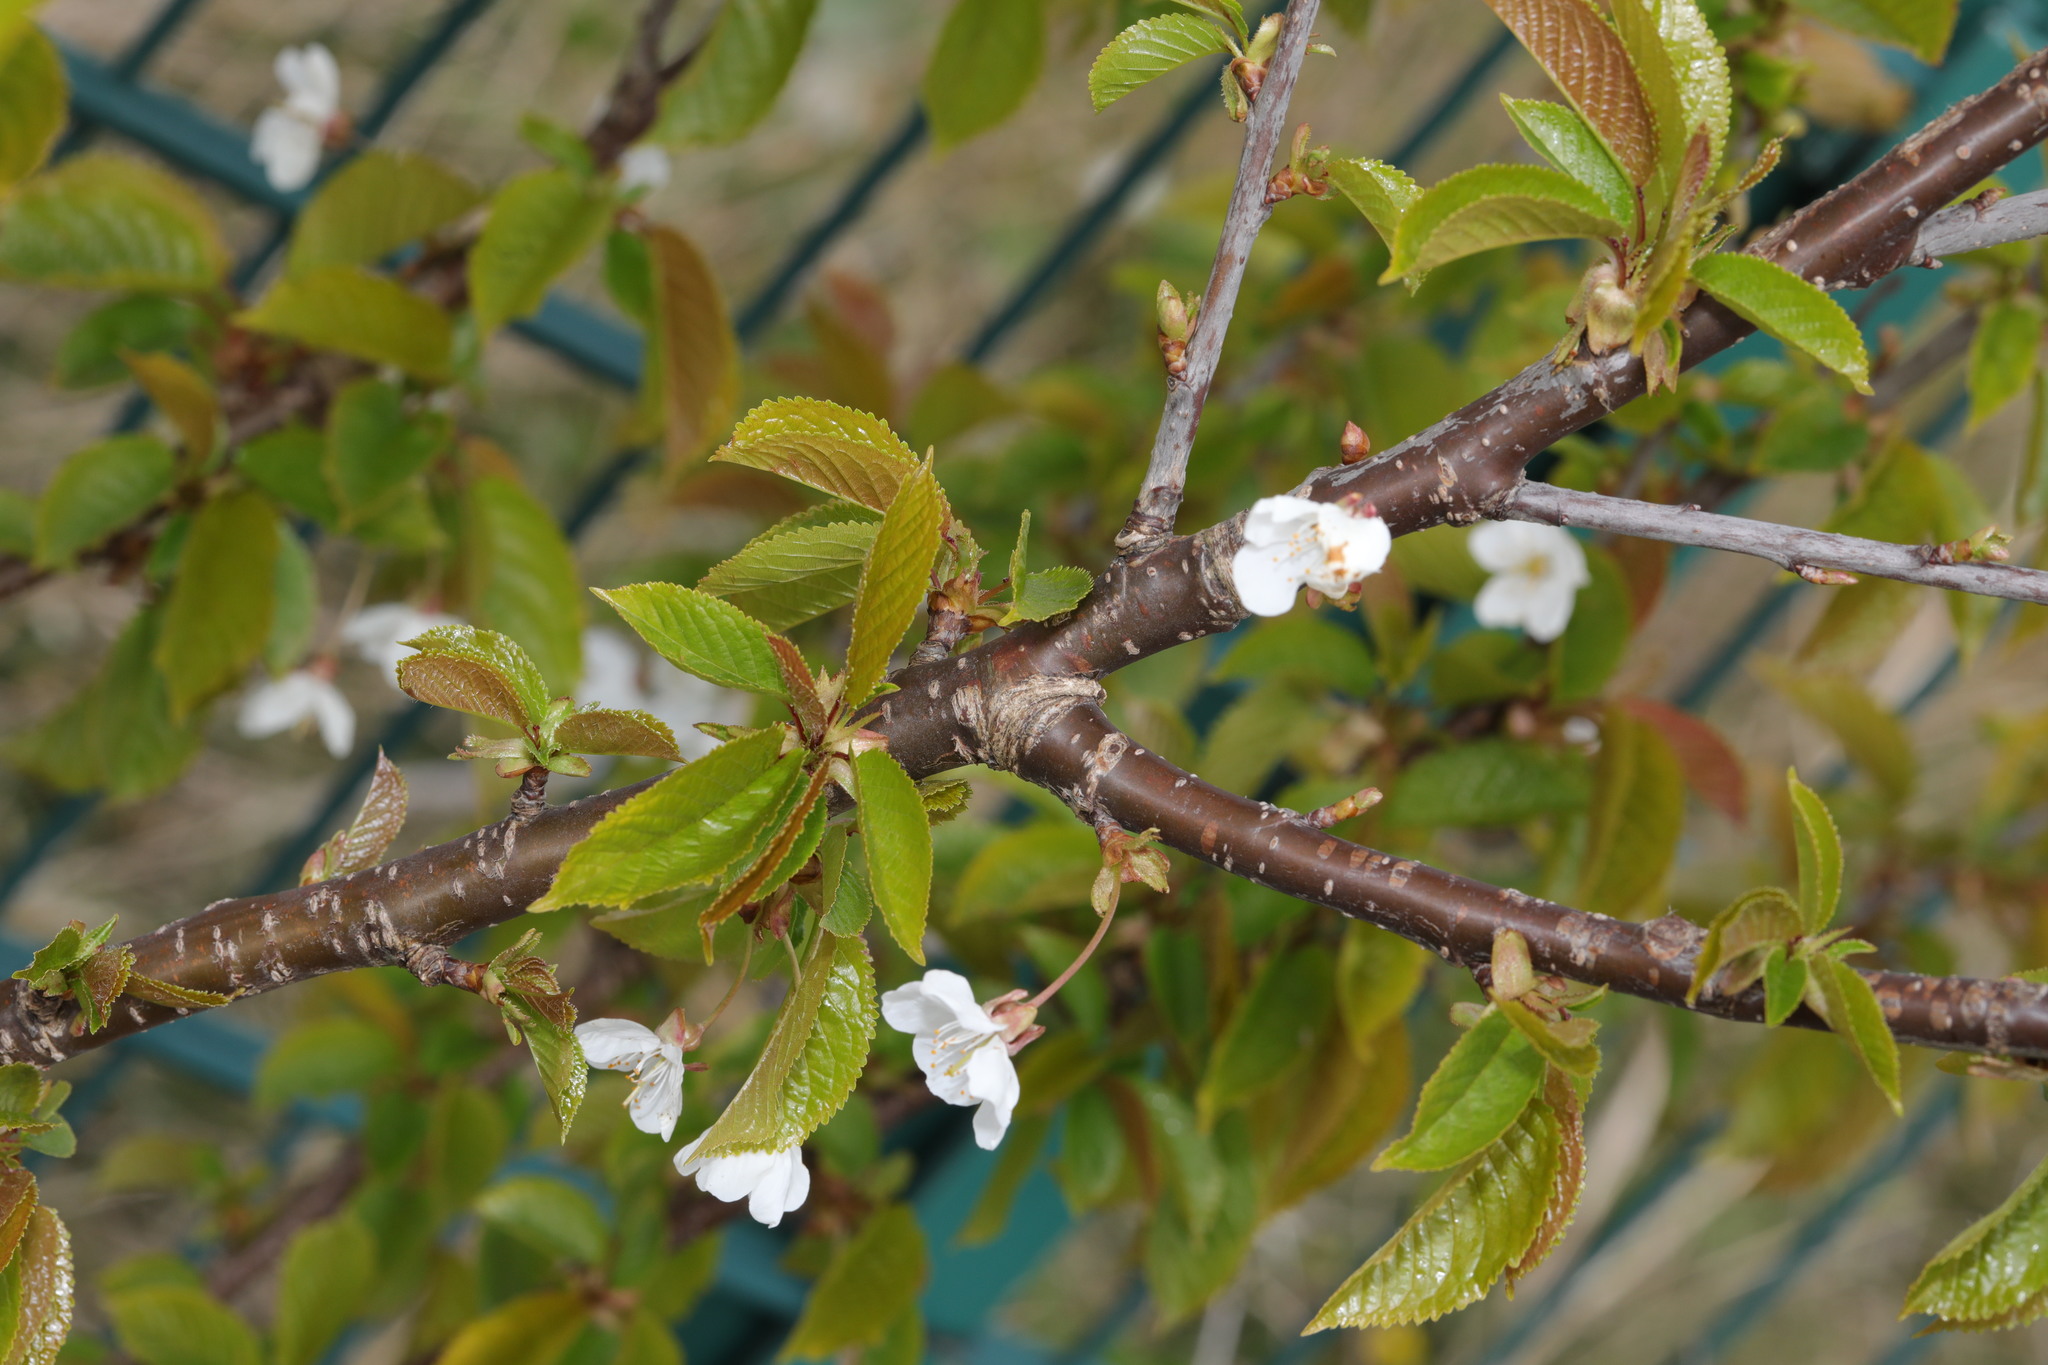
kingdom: Plantae
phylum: Tracheophyta
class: Magnoliopsida
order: Rosales
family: Rosaceae
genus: Prunus
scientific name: Prunus avium
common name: Sweet cherry
